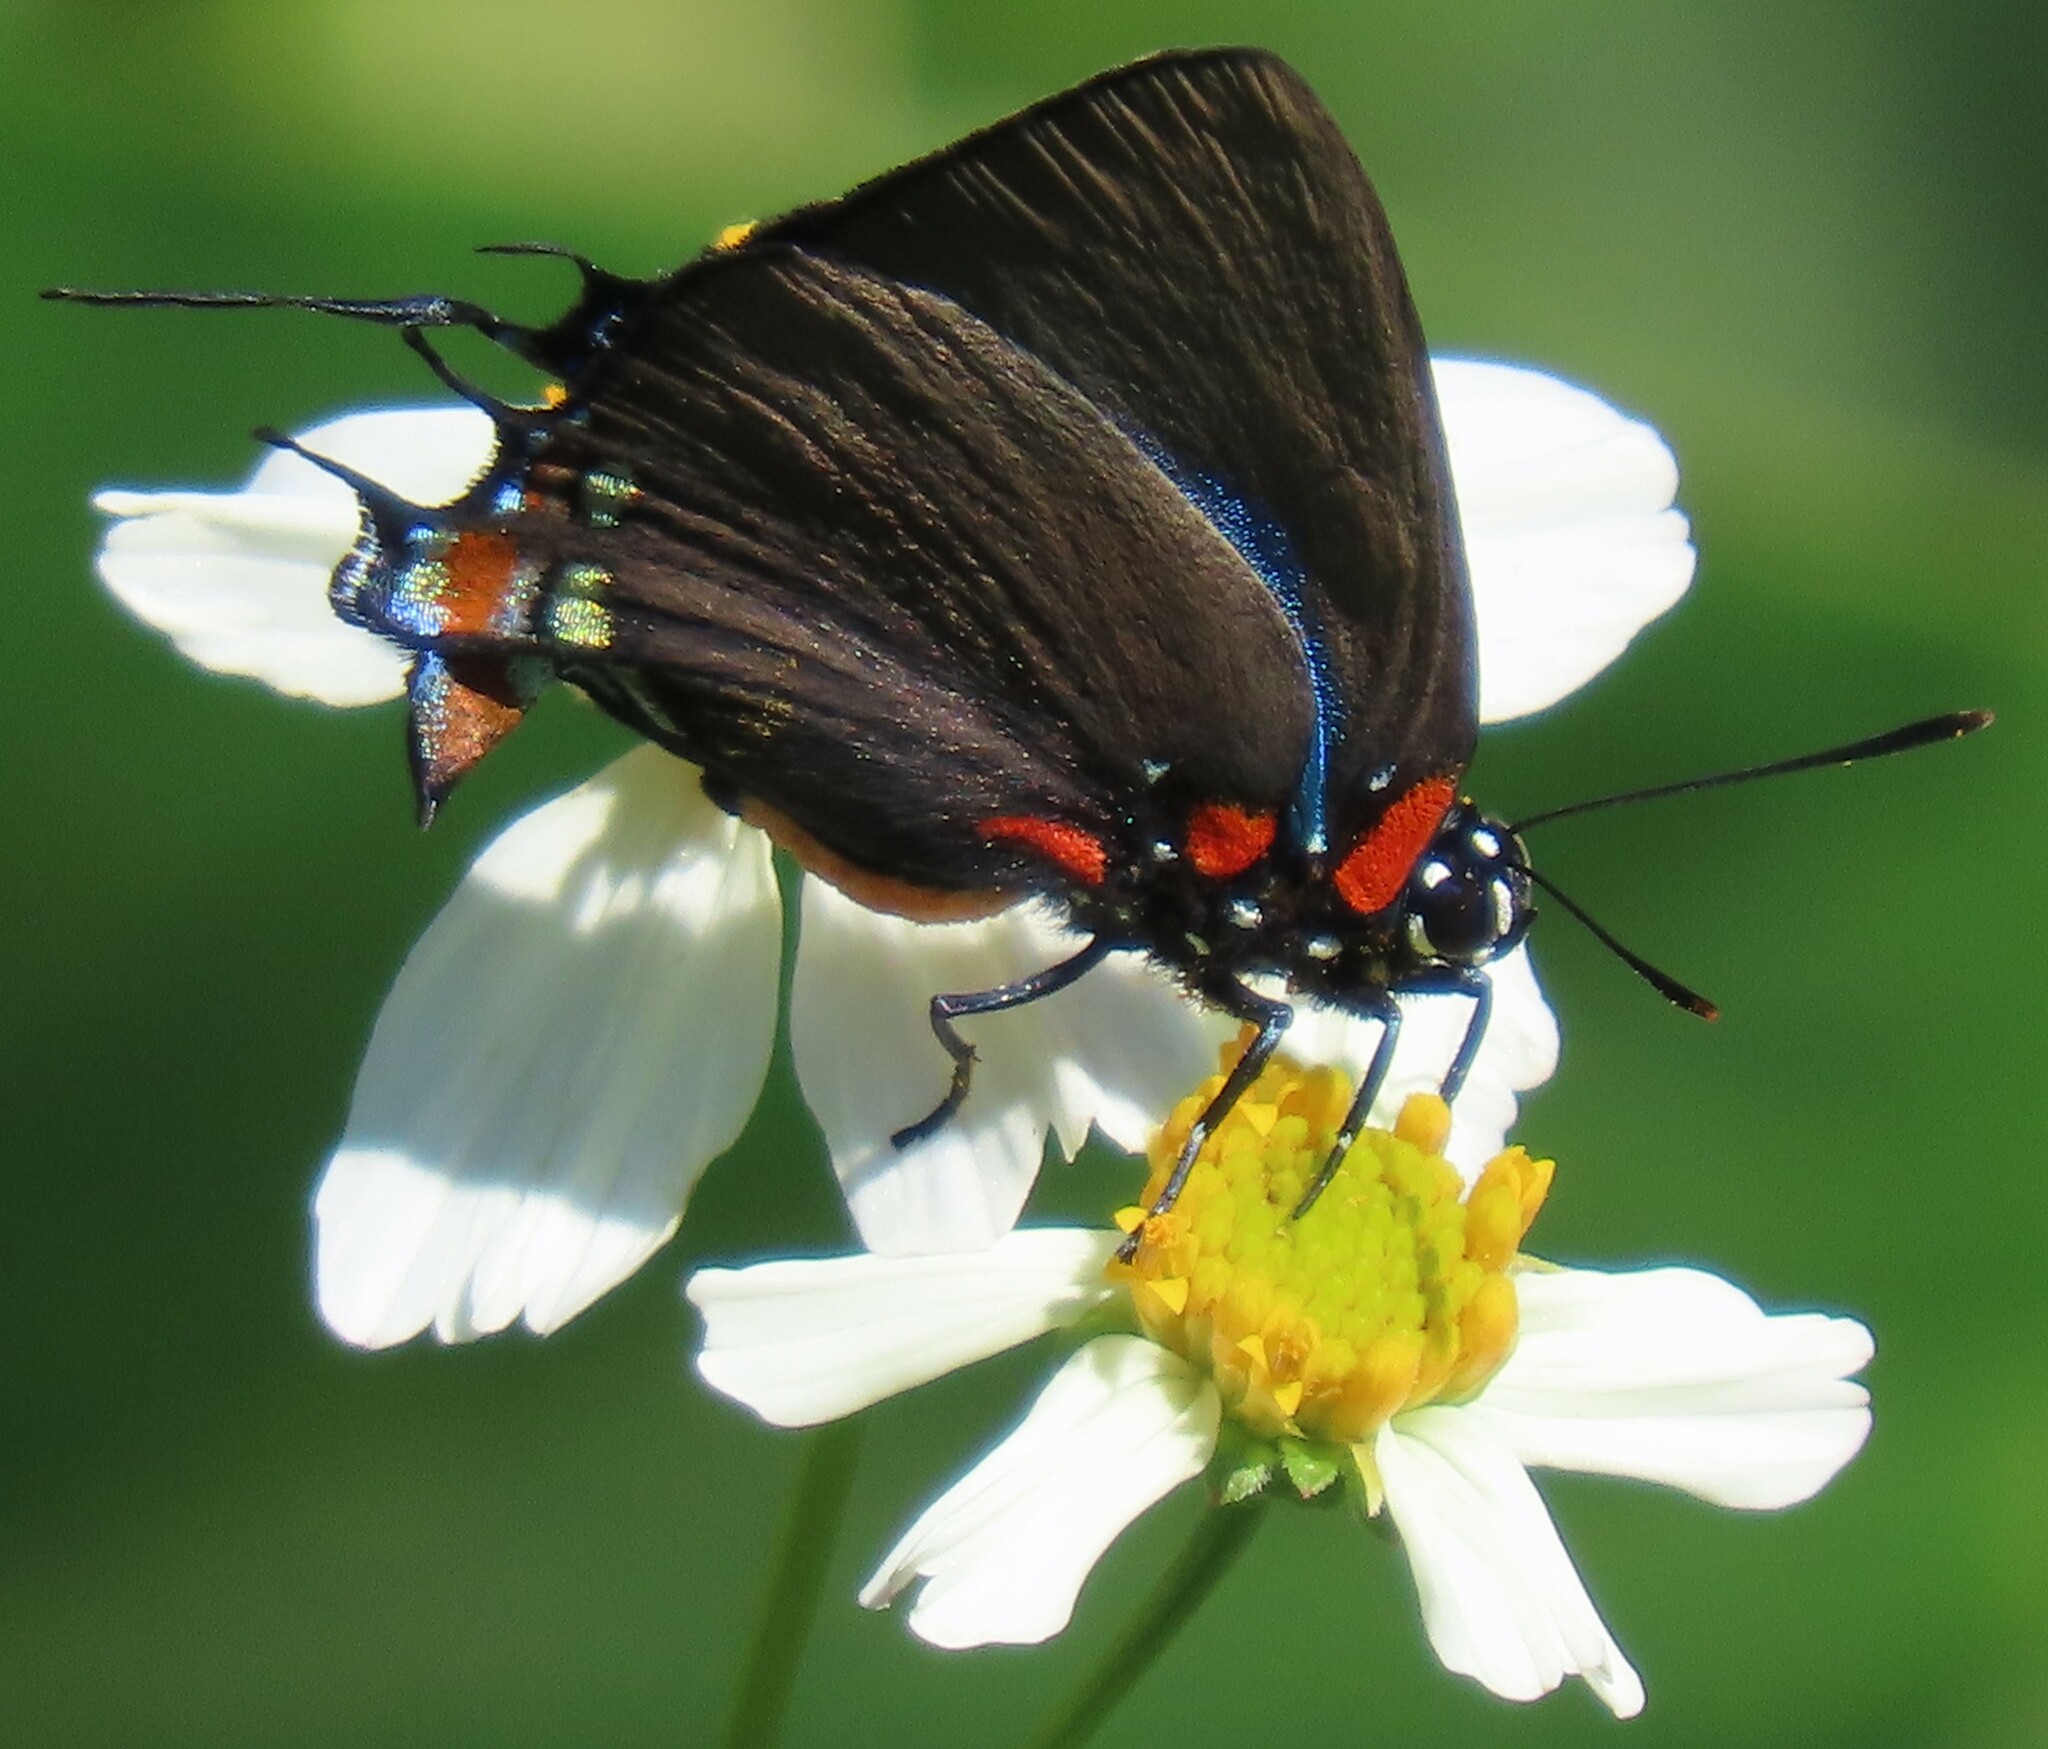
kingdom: Animalia
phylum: Arthropoda
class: Insecta
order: Lepidoptera
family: Lycaenidae
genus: Atlides
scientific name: Atlides halesus
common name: Great purple hairstreak
